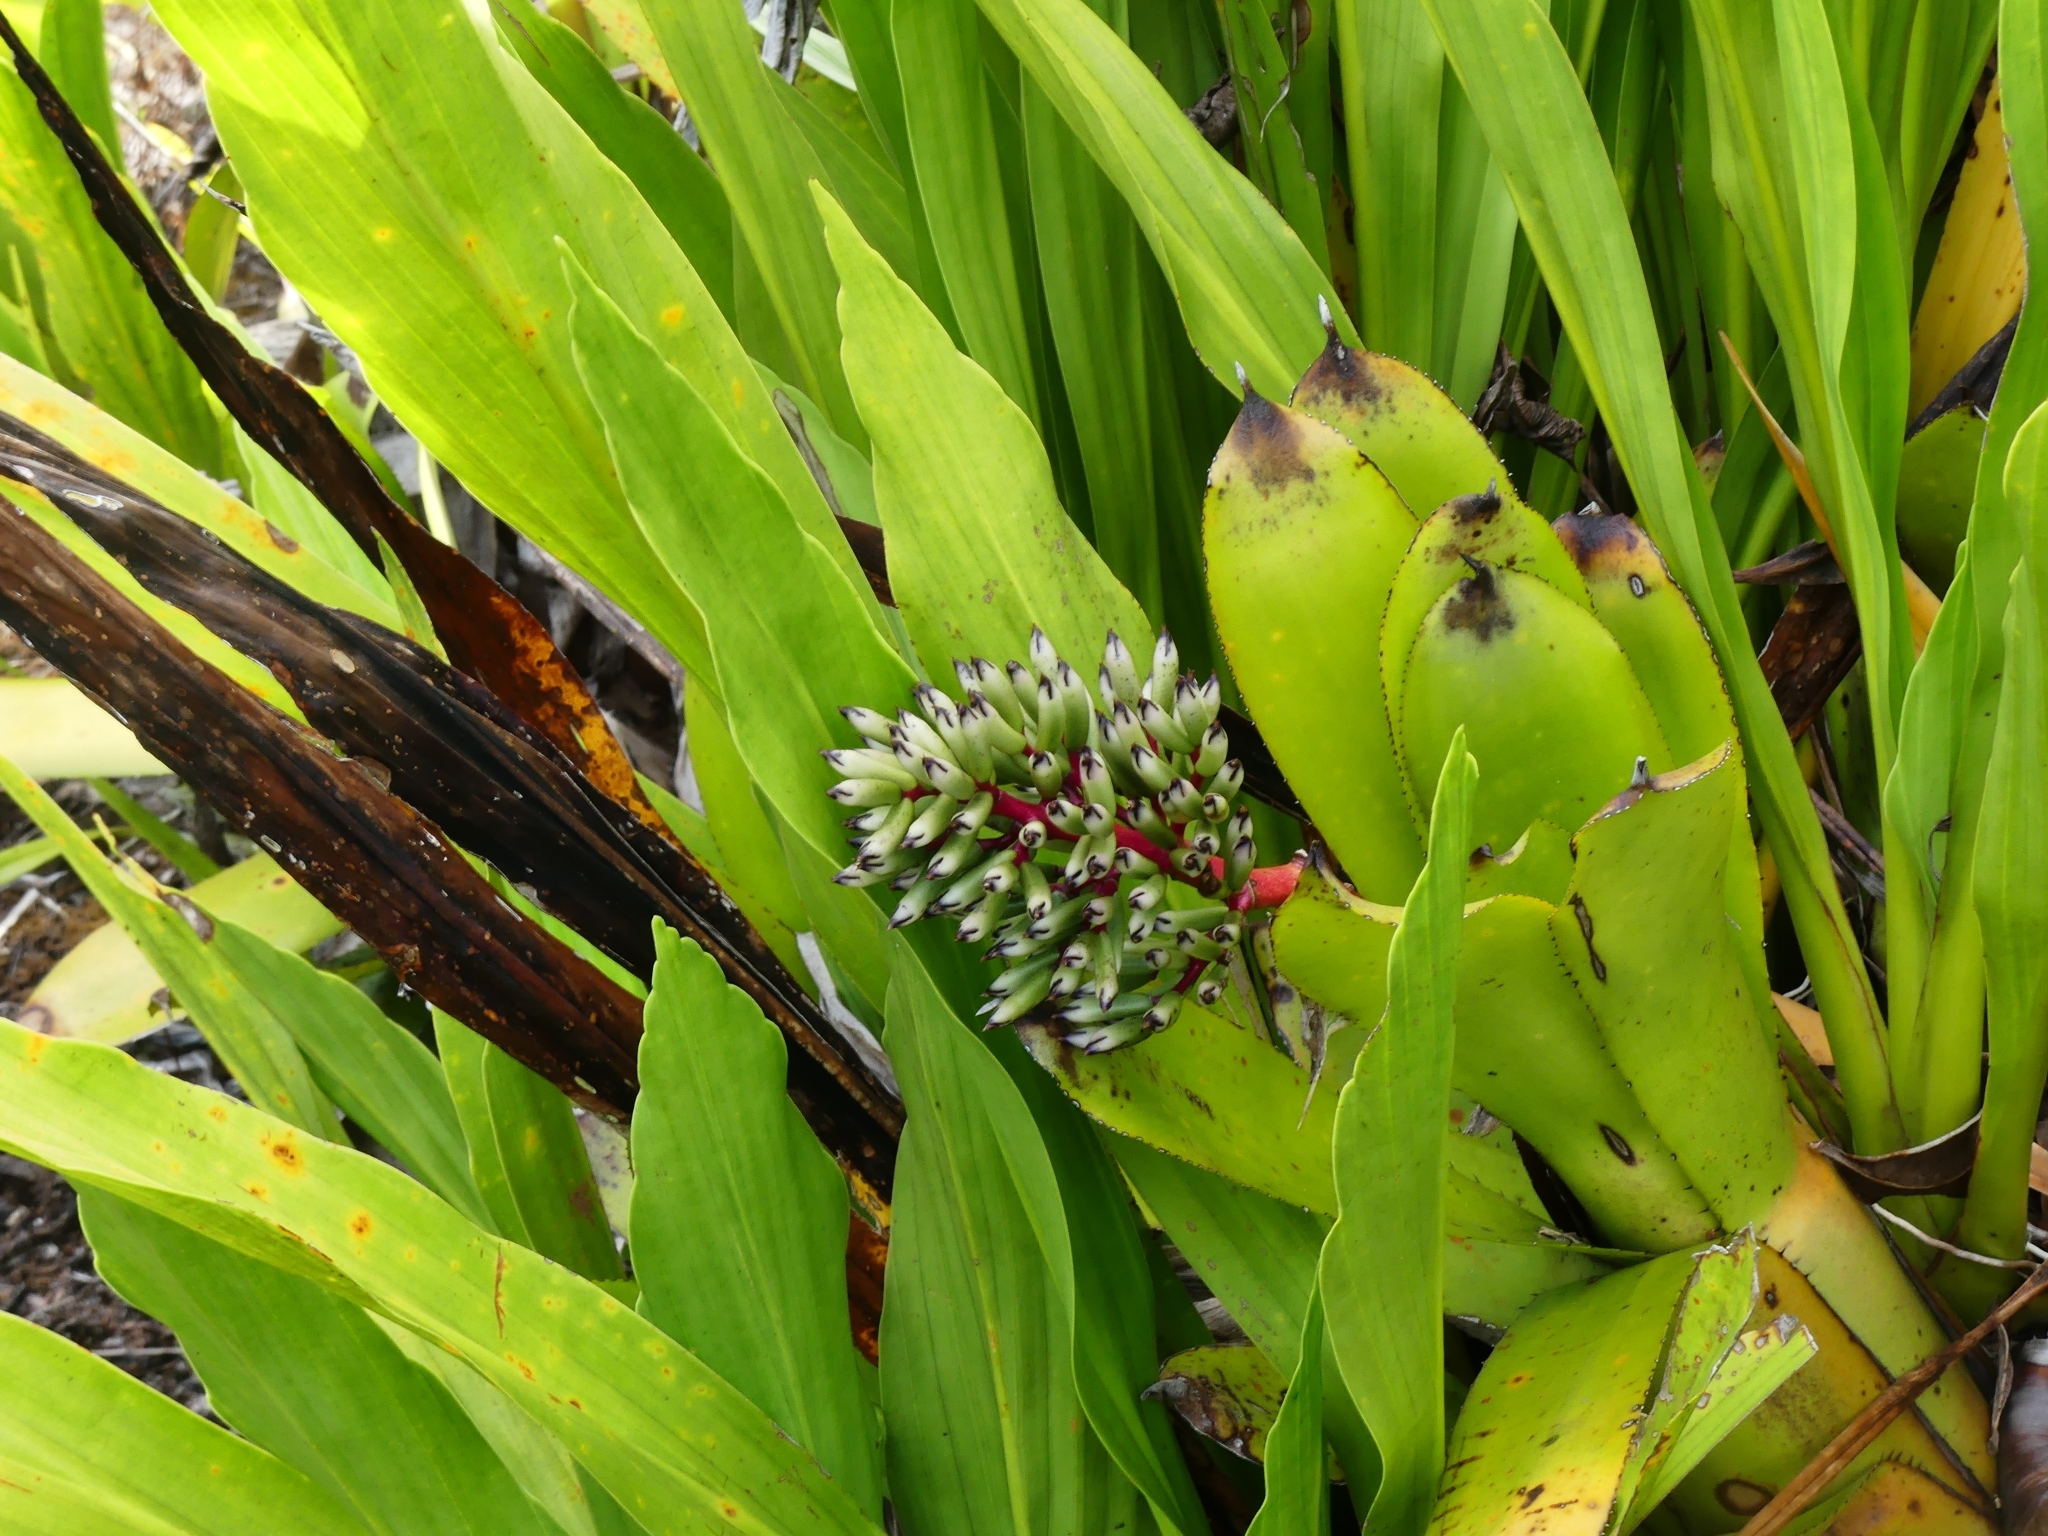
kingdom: Plantae
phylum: Tracheophyta
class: Liliopsida
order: Poales
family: Bromeliaceae
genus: Aechmea
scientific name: Aechmea melinonii
